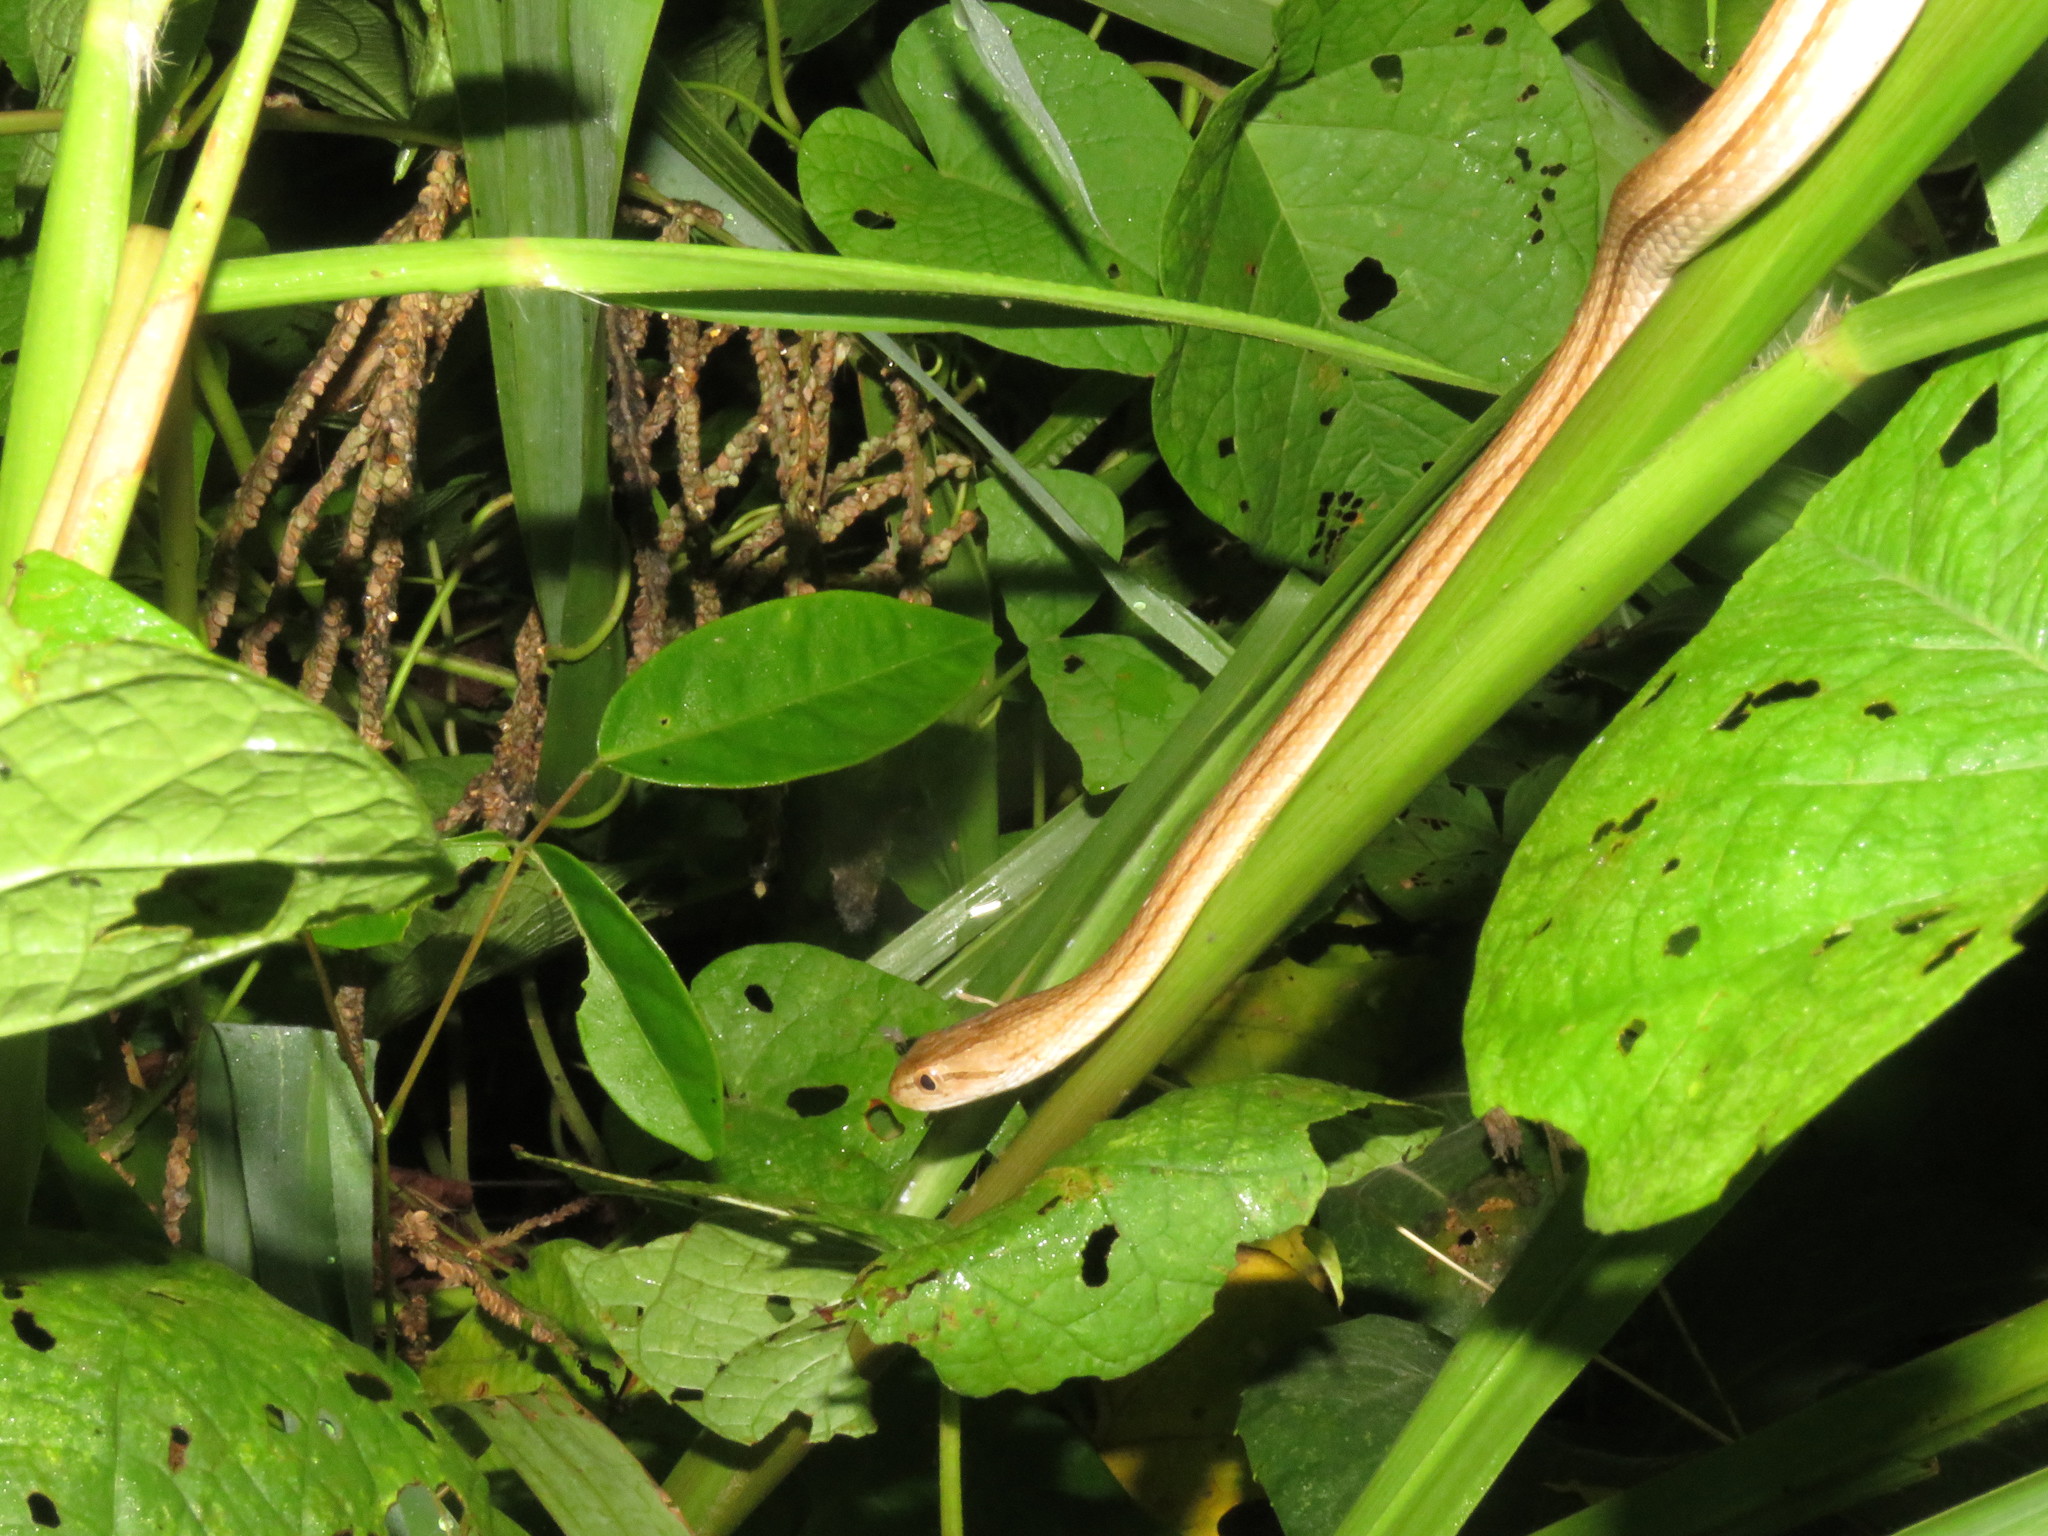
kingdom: Animalia
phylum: Chordata
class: Squamata
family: Colubridae
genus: Thamnodynastes
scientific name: Thamnodynastes pallidus
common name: Amazon coastal house snake
